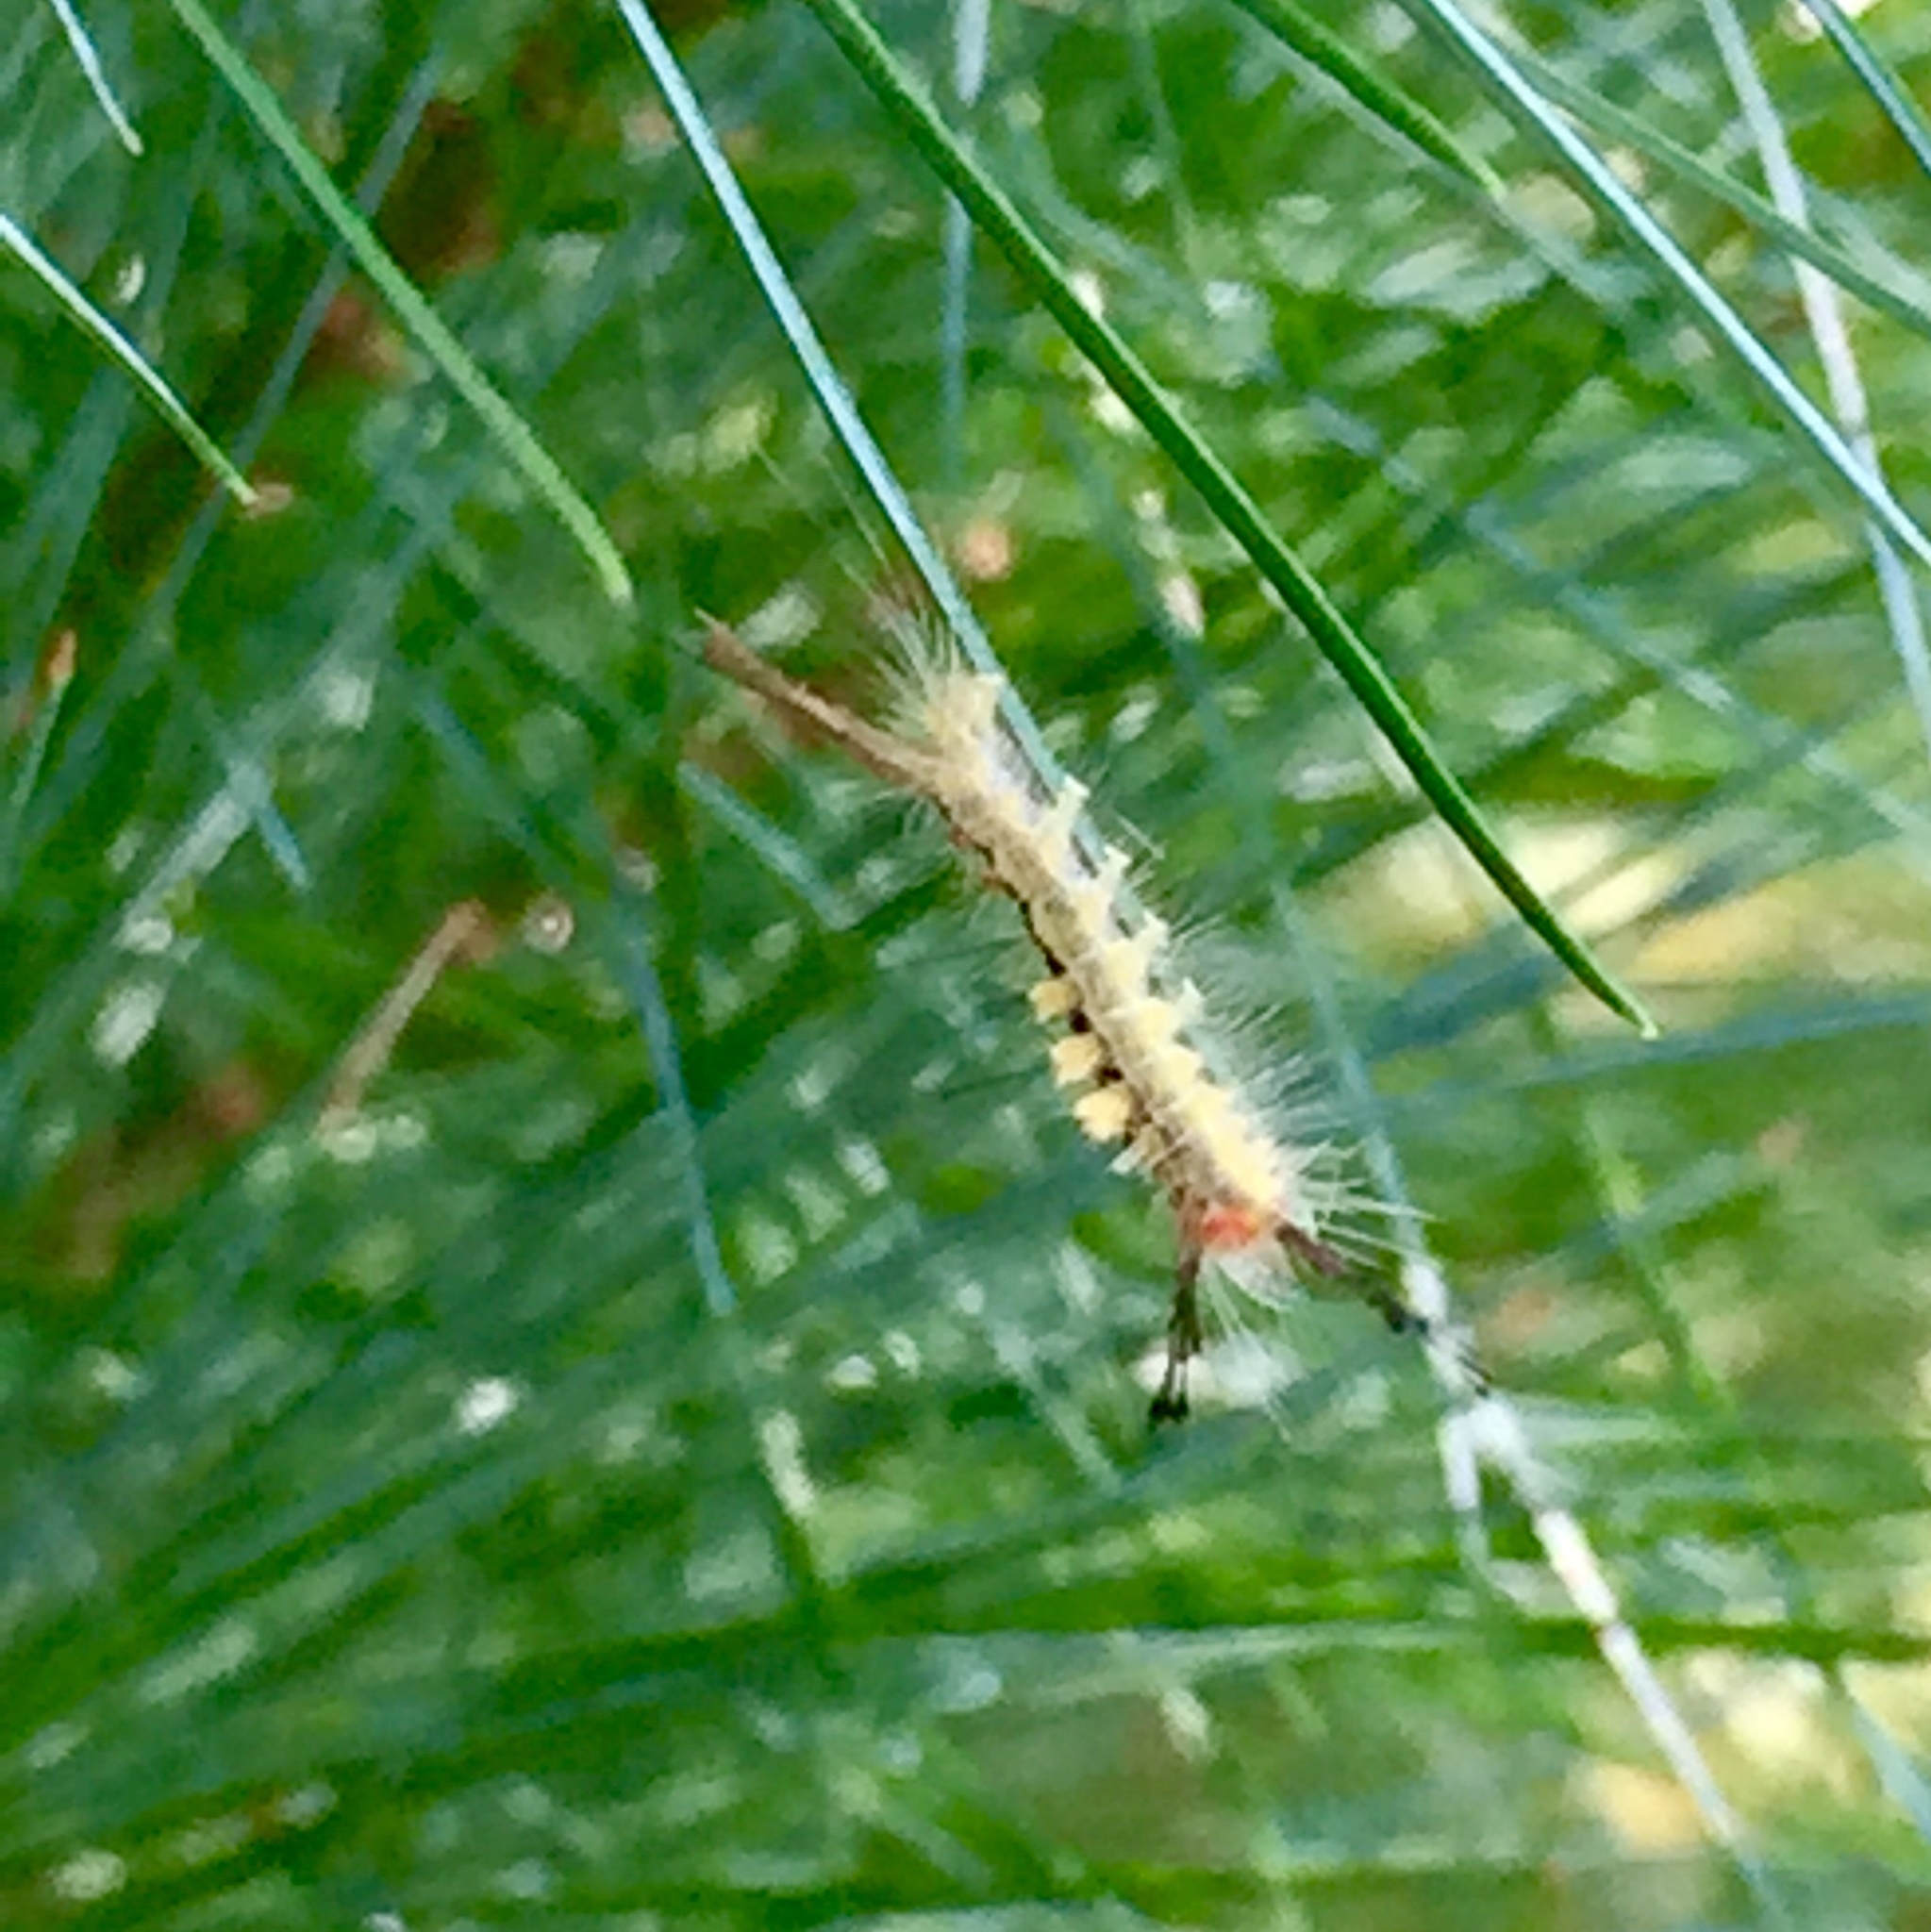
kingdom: Animalia
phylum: Arthropoda
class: Insecta
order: Lepidoptera
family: Erebidae
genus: Orgyia
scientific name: Orgyia leucostigma
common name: White-marked tussock moth
